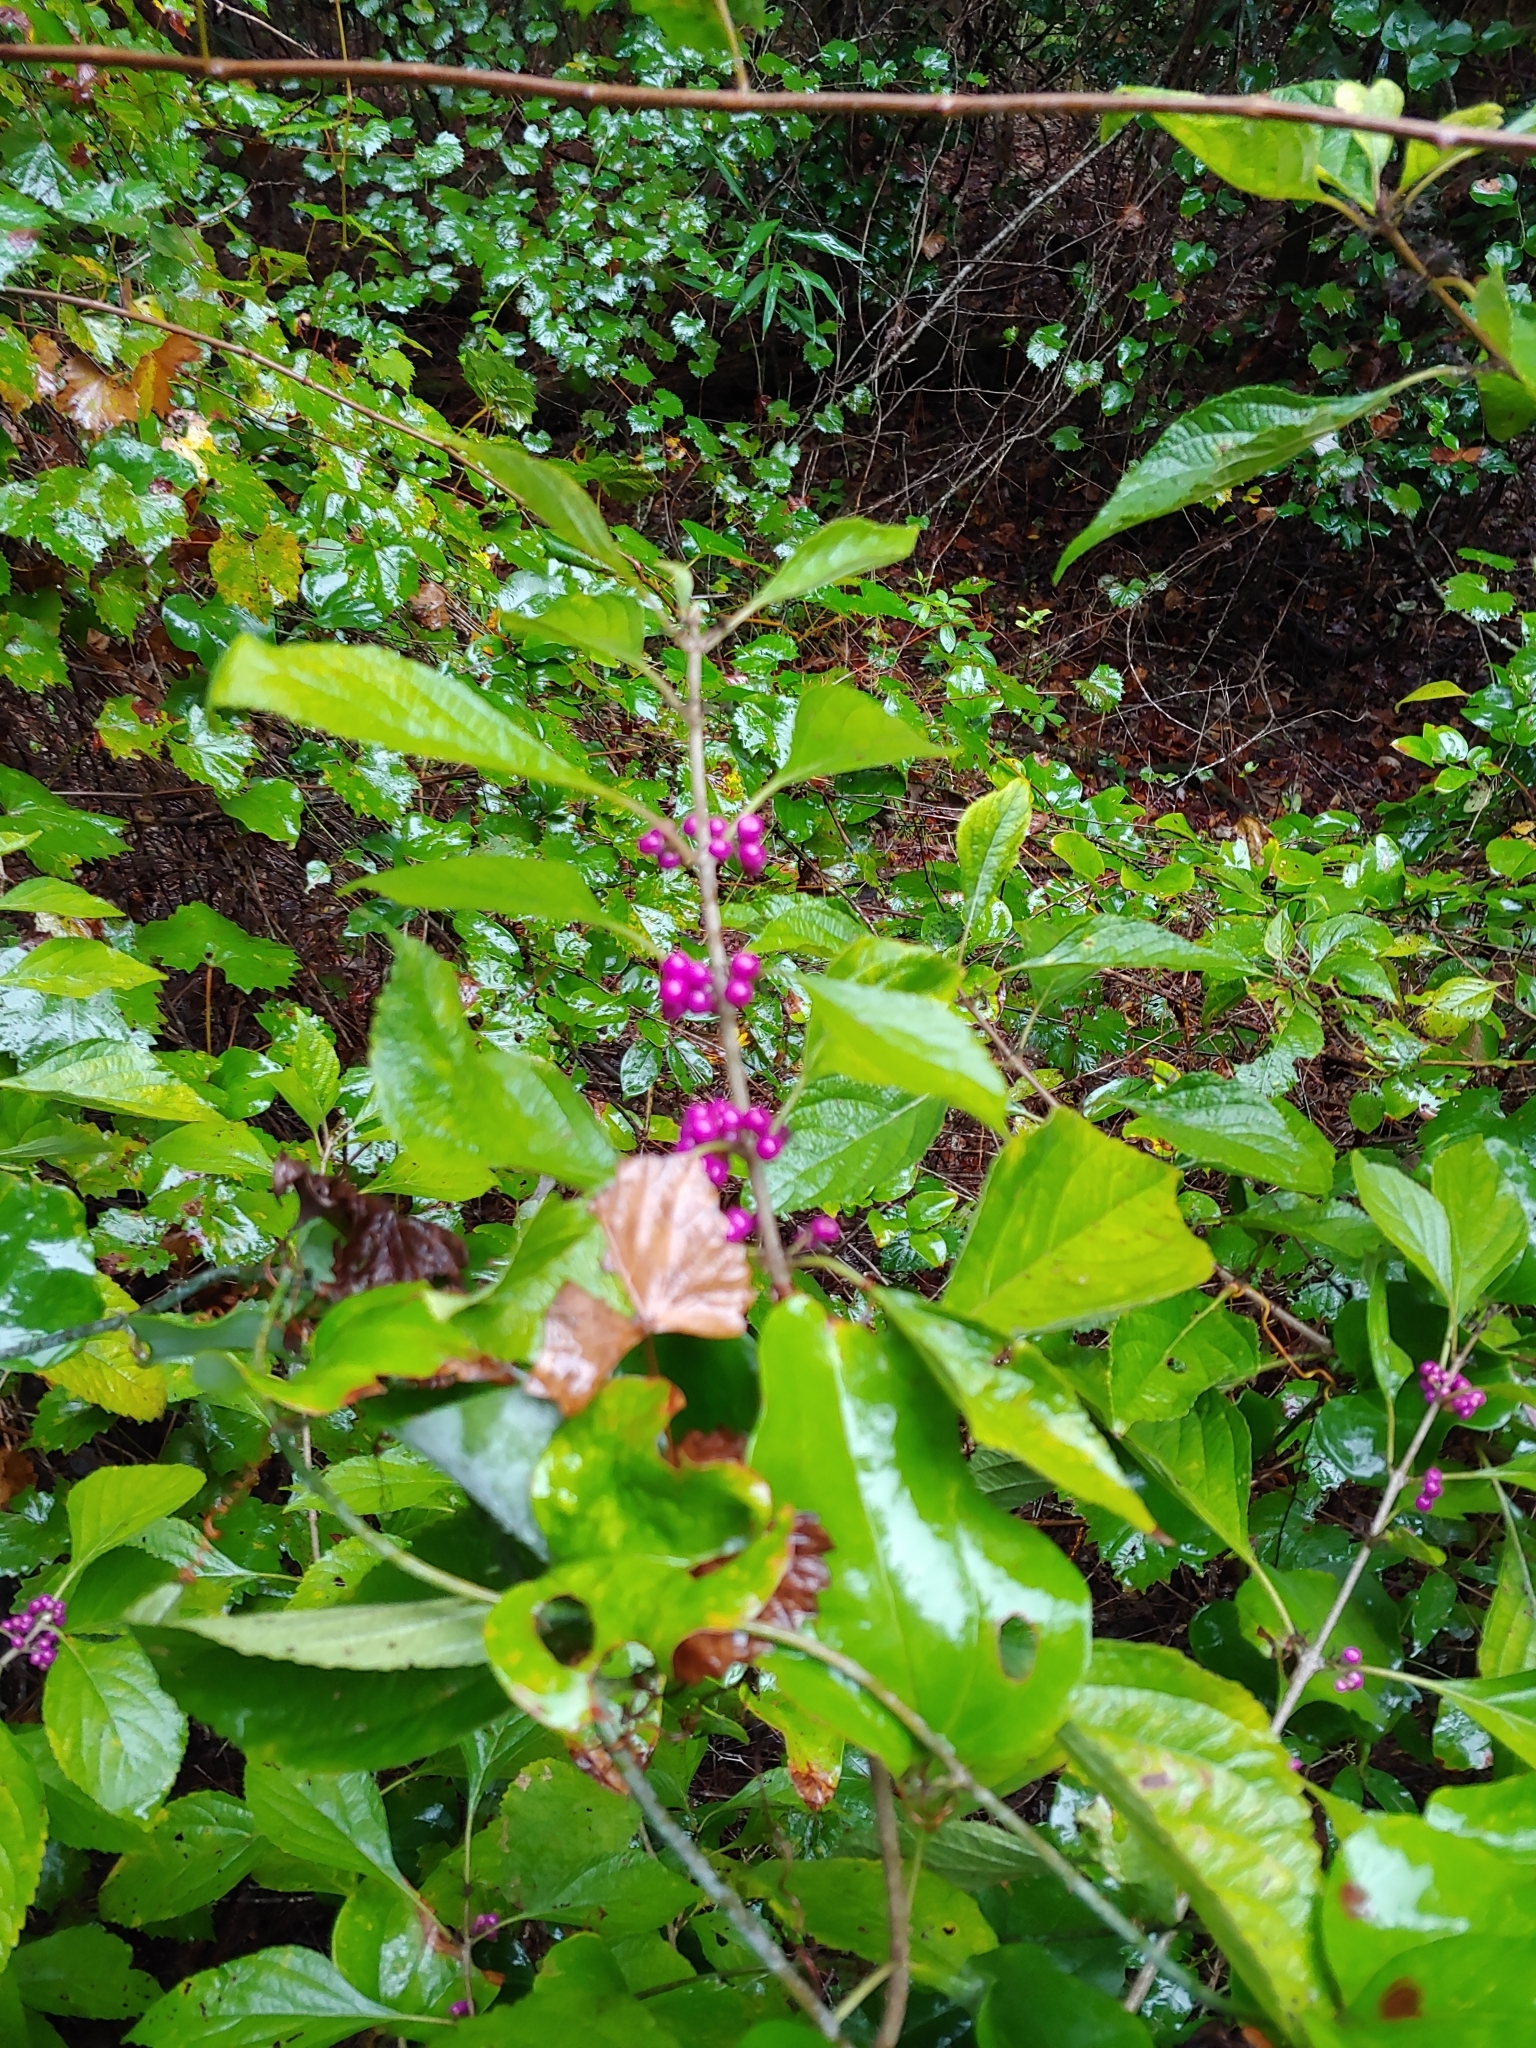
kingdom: Plantae
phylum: Tracheophyta
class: Magnoliopsida
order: Lamiales
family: Lamiaceae
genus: Callicarpa
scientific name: Callicarpa americana
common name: American beautyberry
